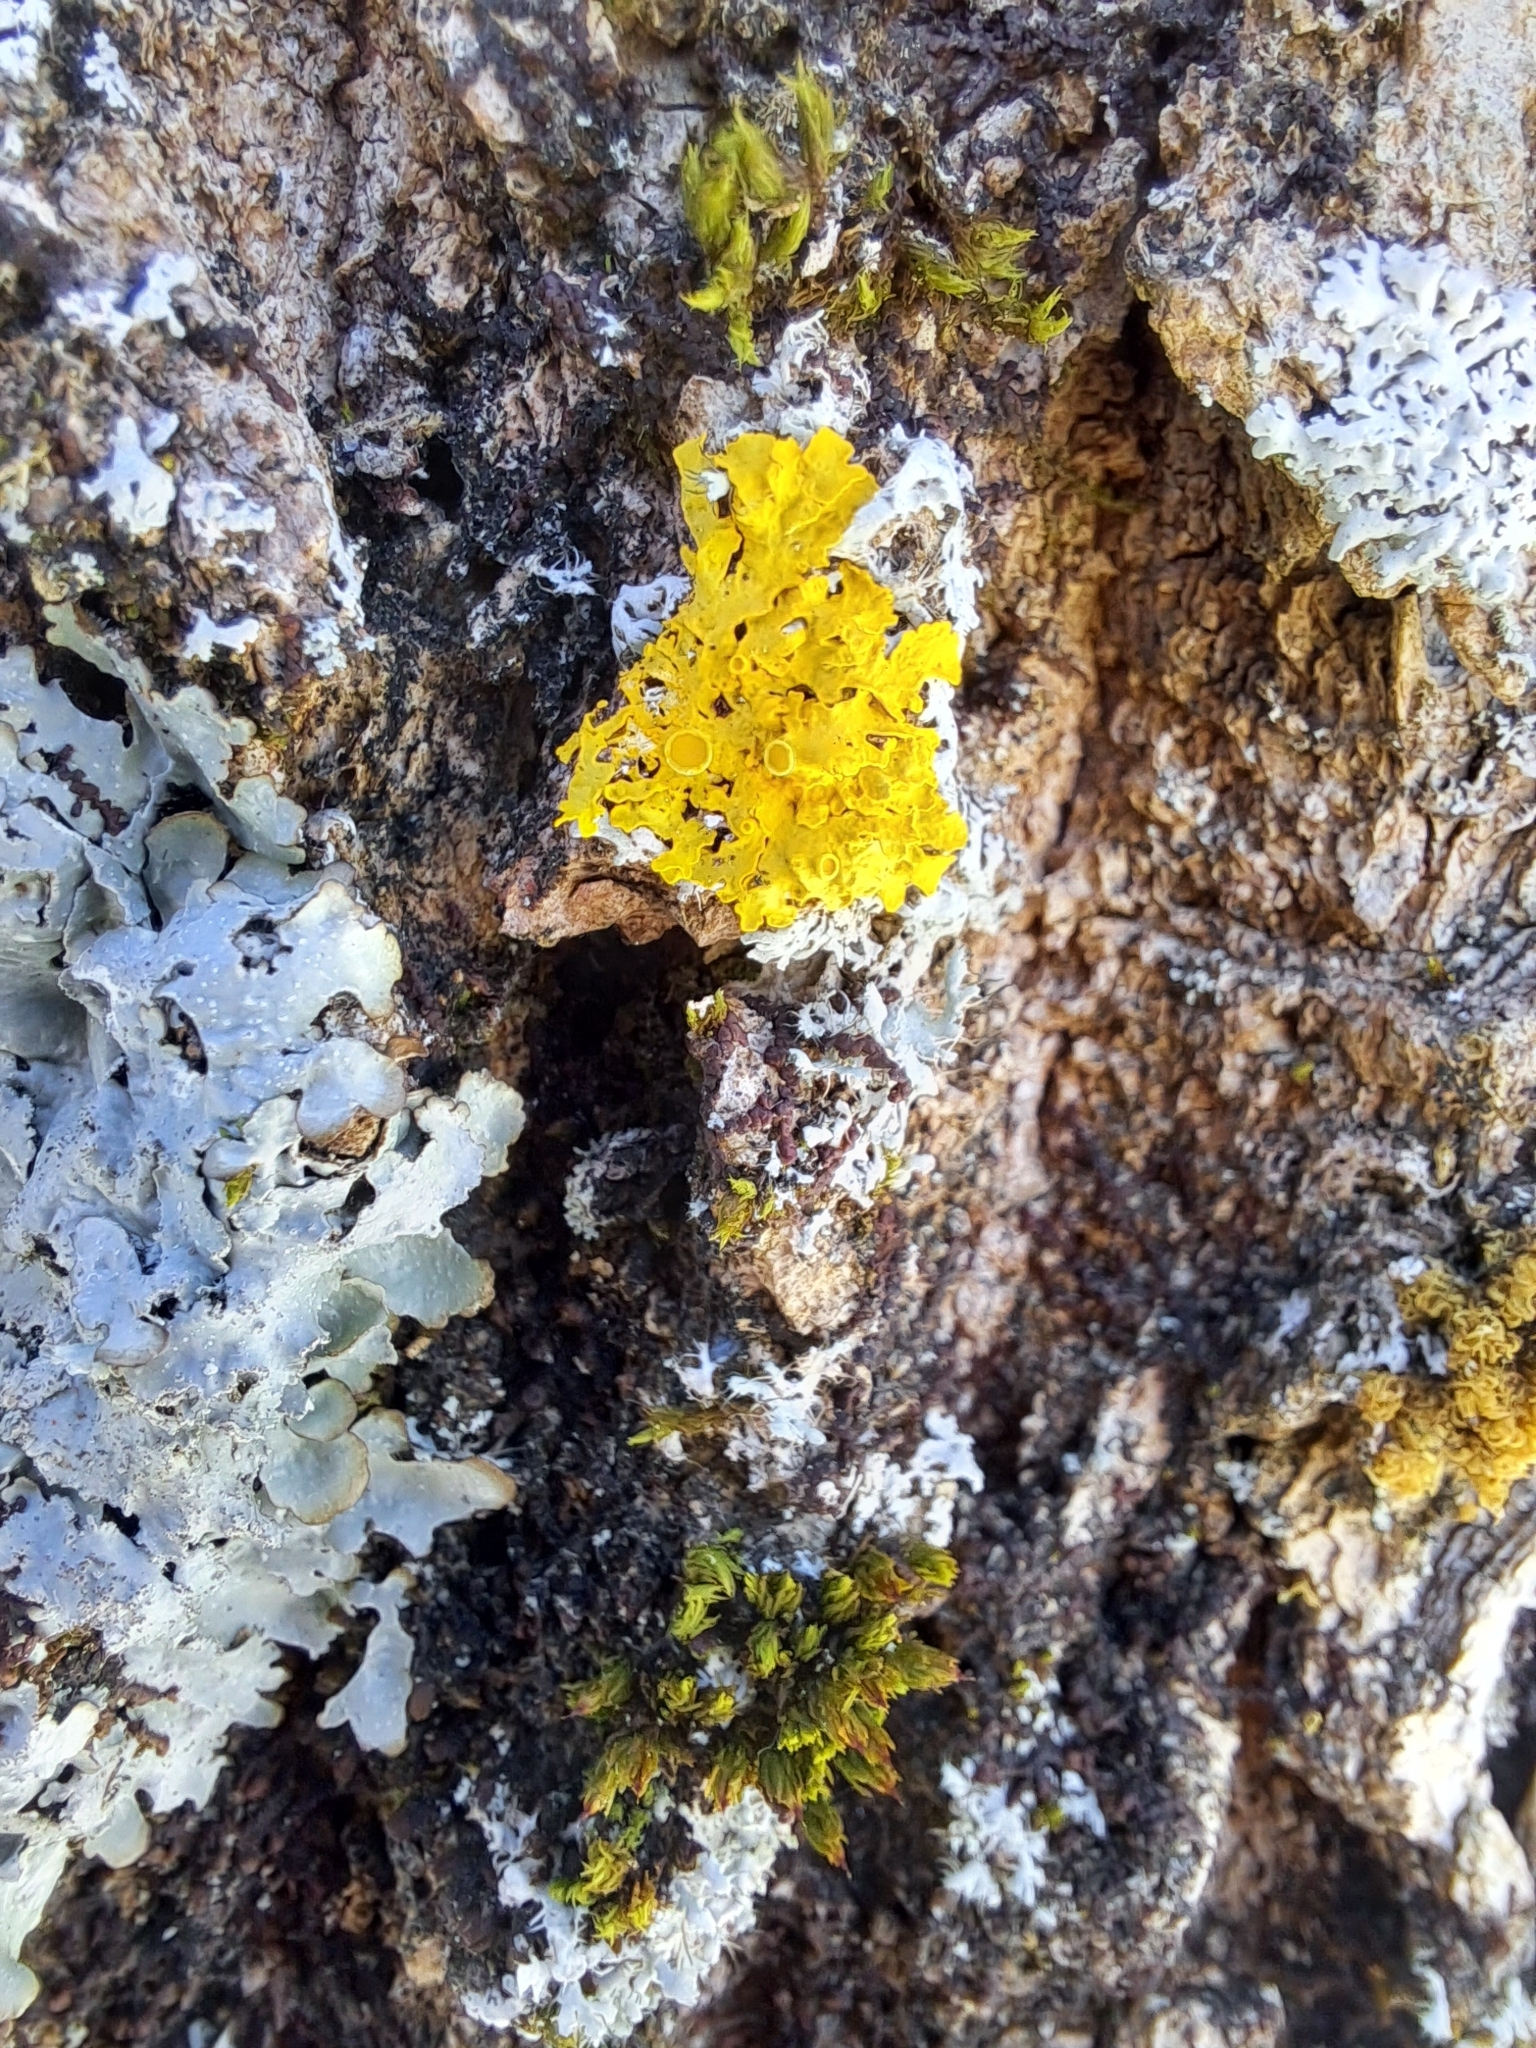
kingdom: Fungi
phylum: Ascomycota
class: Lecanoromycetes
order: Teloschistales
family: Teloschistaceae
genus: Xanthoria
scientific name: Xanthoria parietina
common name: Common orange lichen
